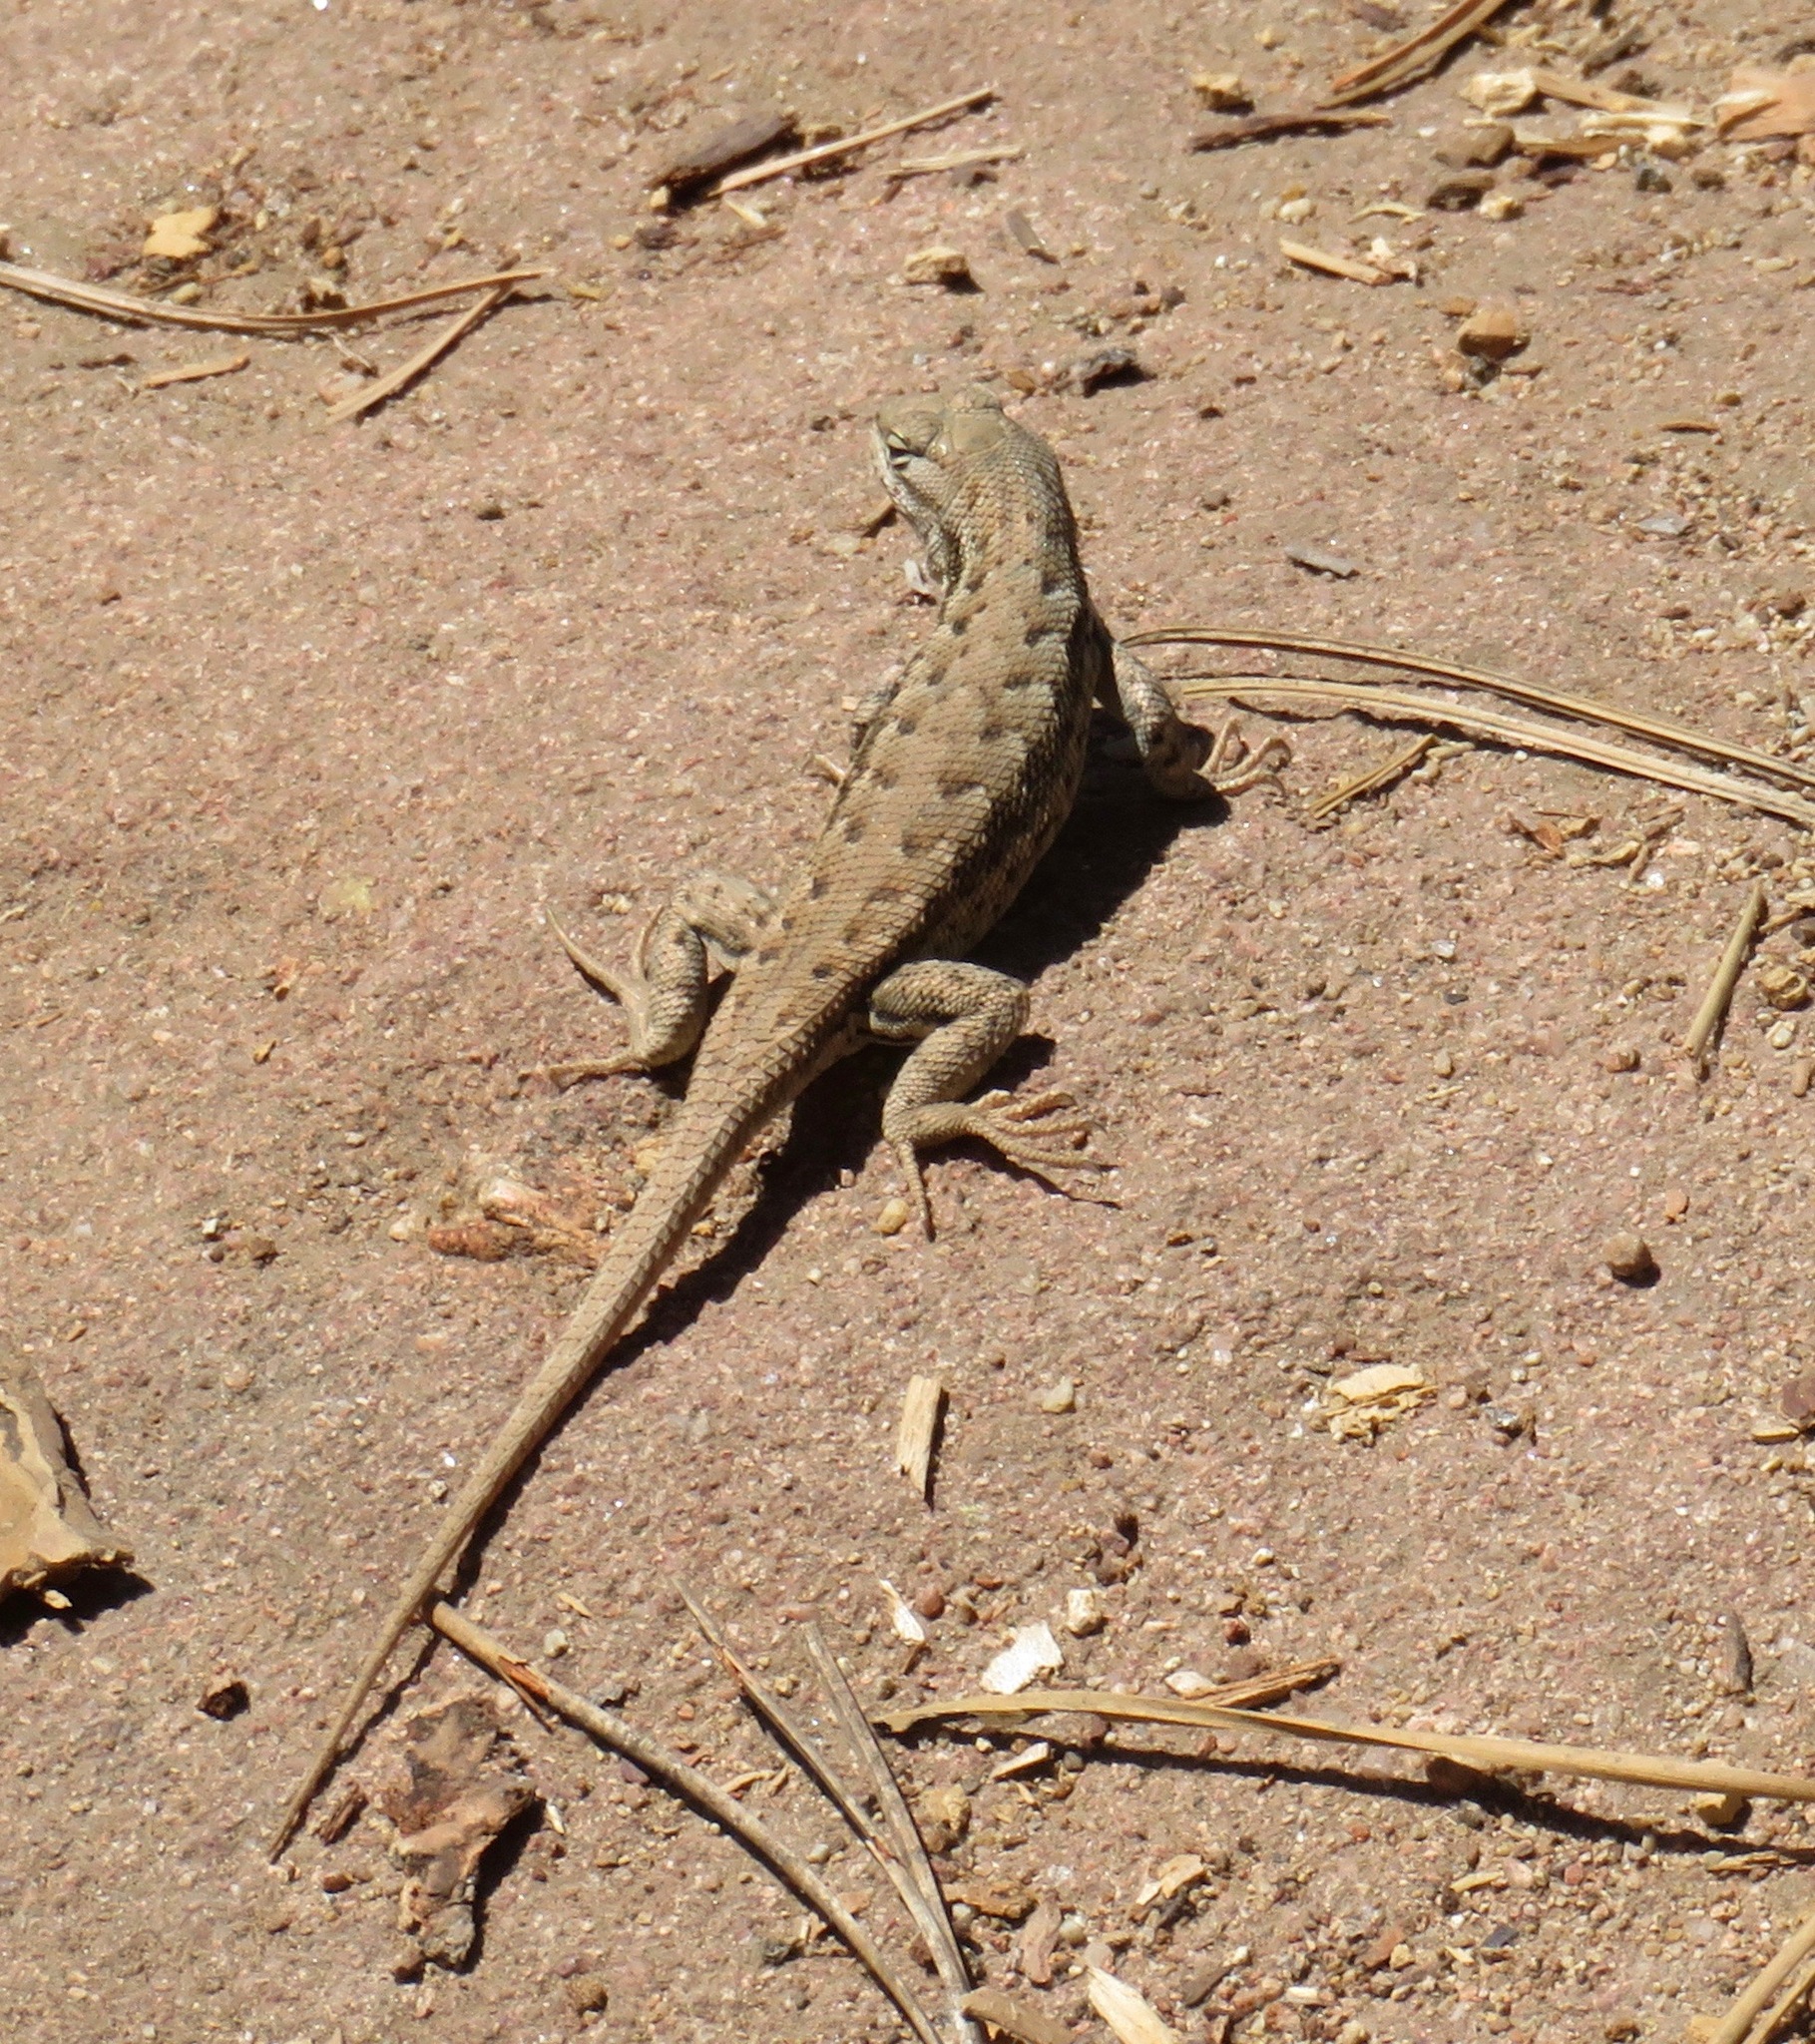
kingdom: Animalia
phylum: Chordata
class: Squamata
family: Phrynosomatidae
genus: Sceloporus
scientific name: Sceloporus graciosus
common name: Sagebrush lizard
